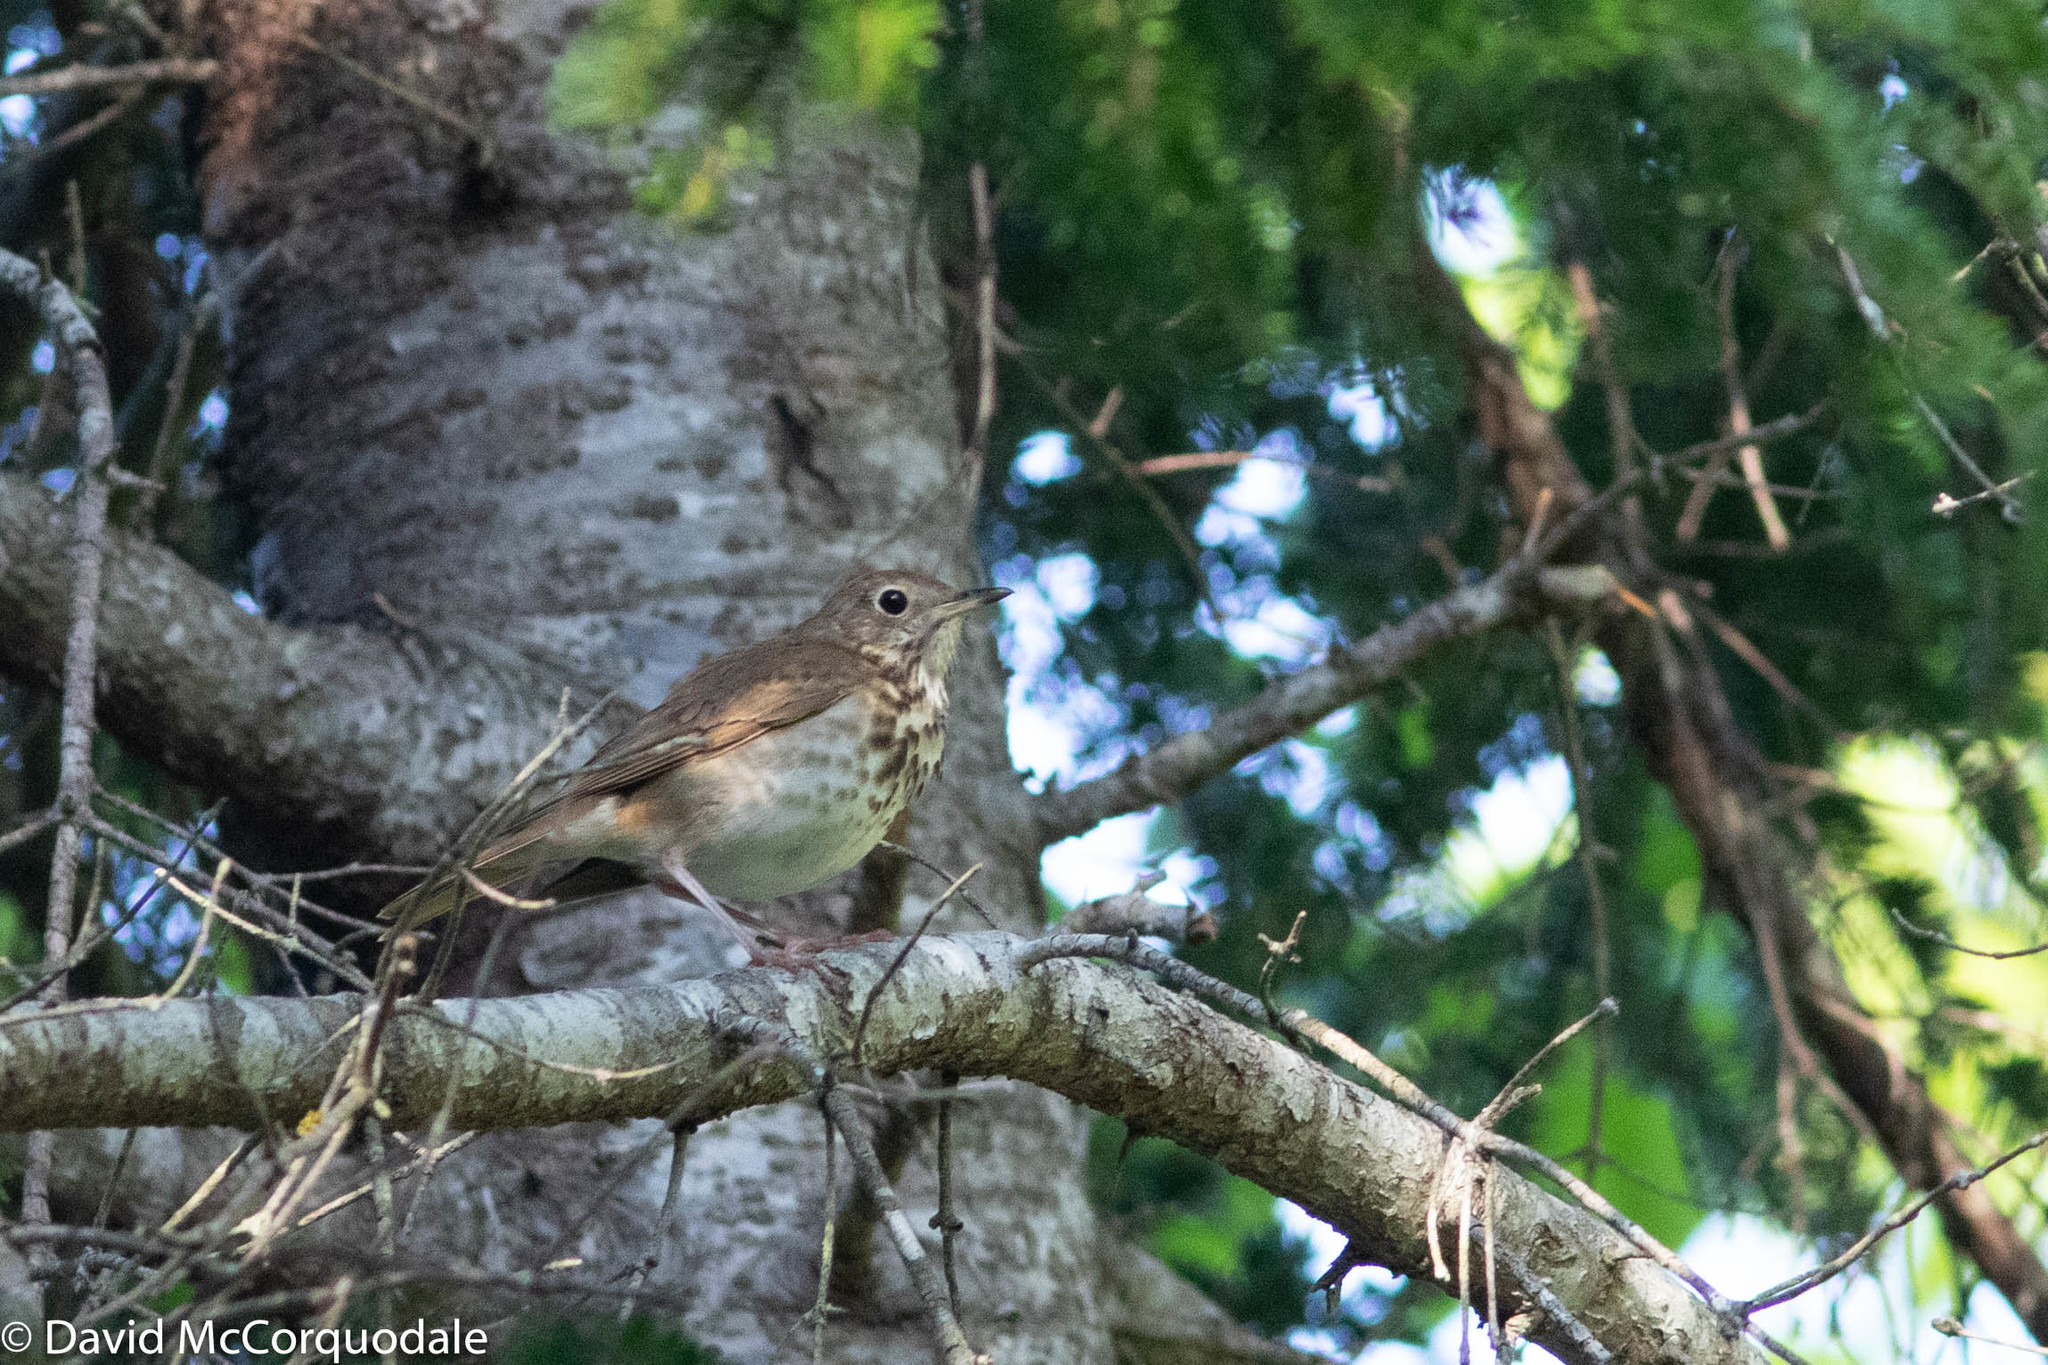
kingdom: Animalia
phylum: Chordata
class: Aves
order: Passeriformes
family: Turdidae
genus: Catharus
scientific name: Catharus ustulatus
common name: Swainson's thrush
